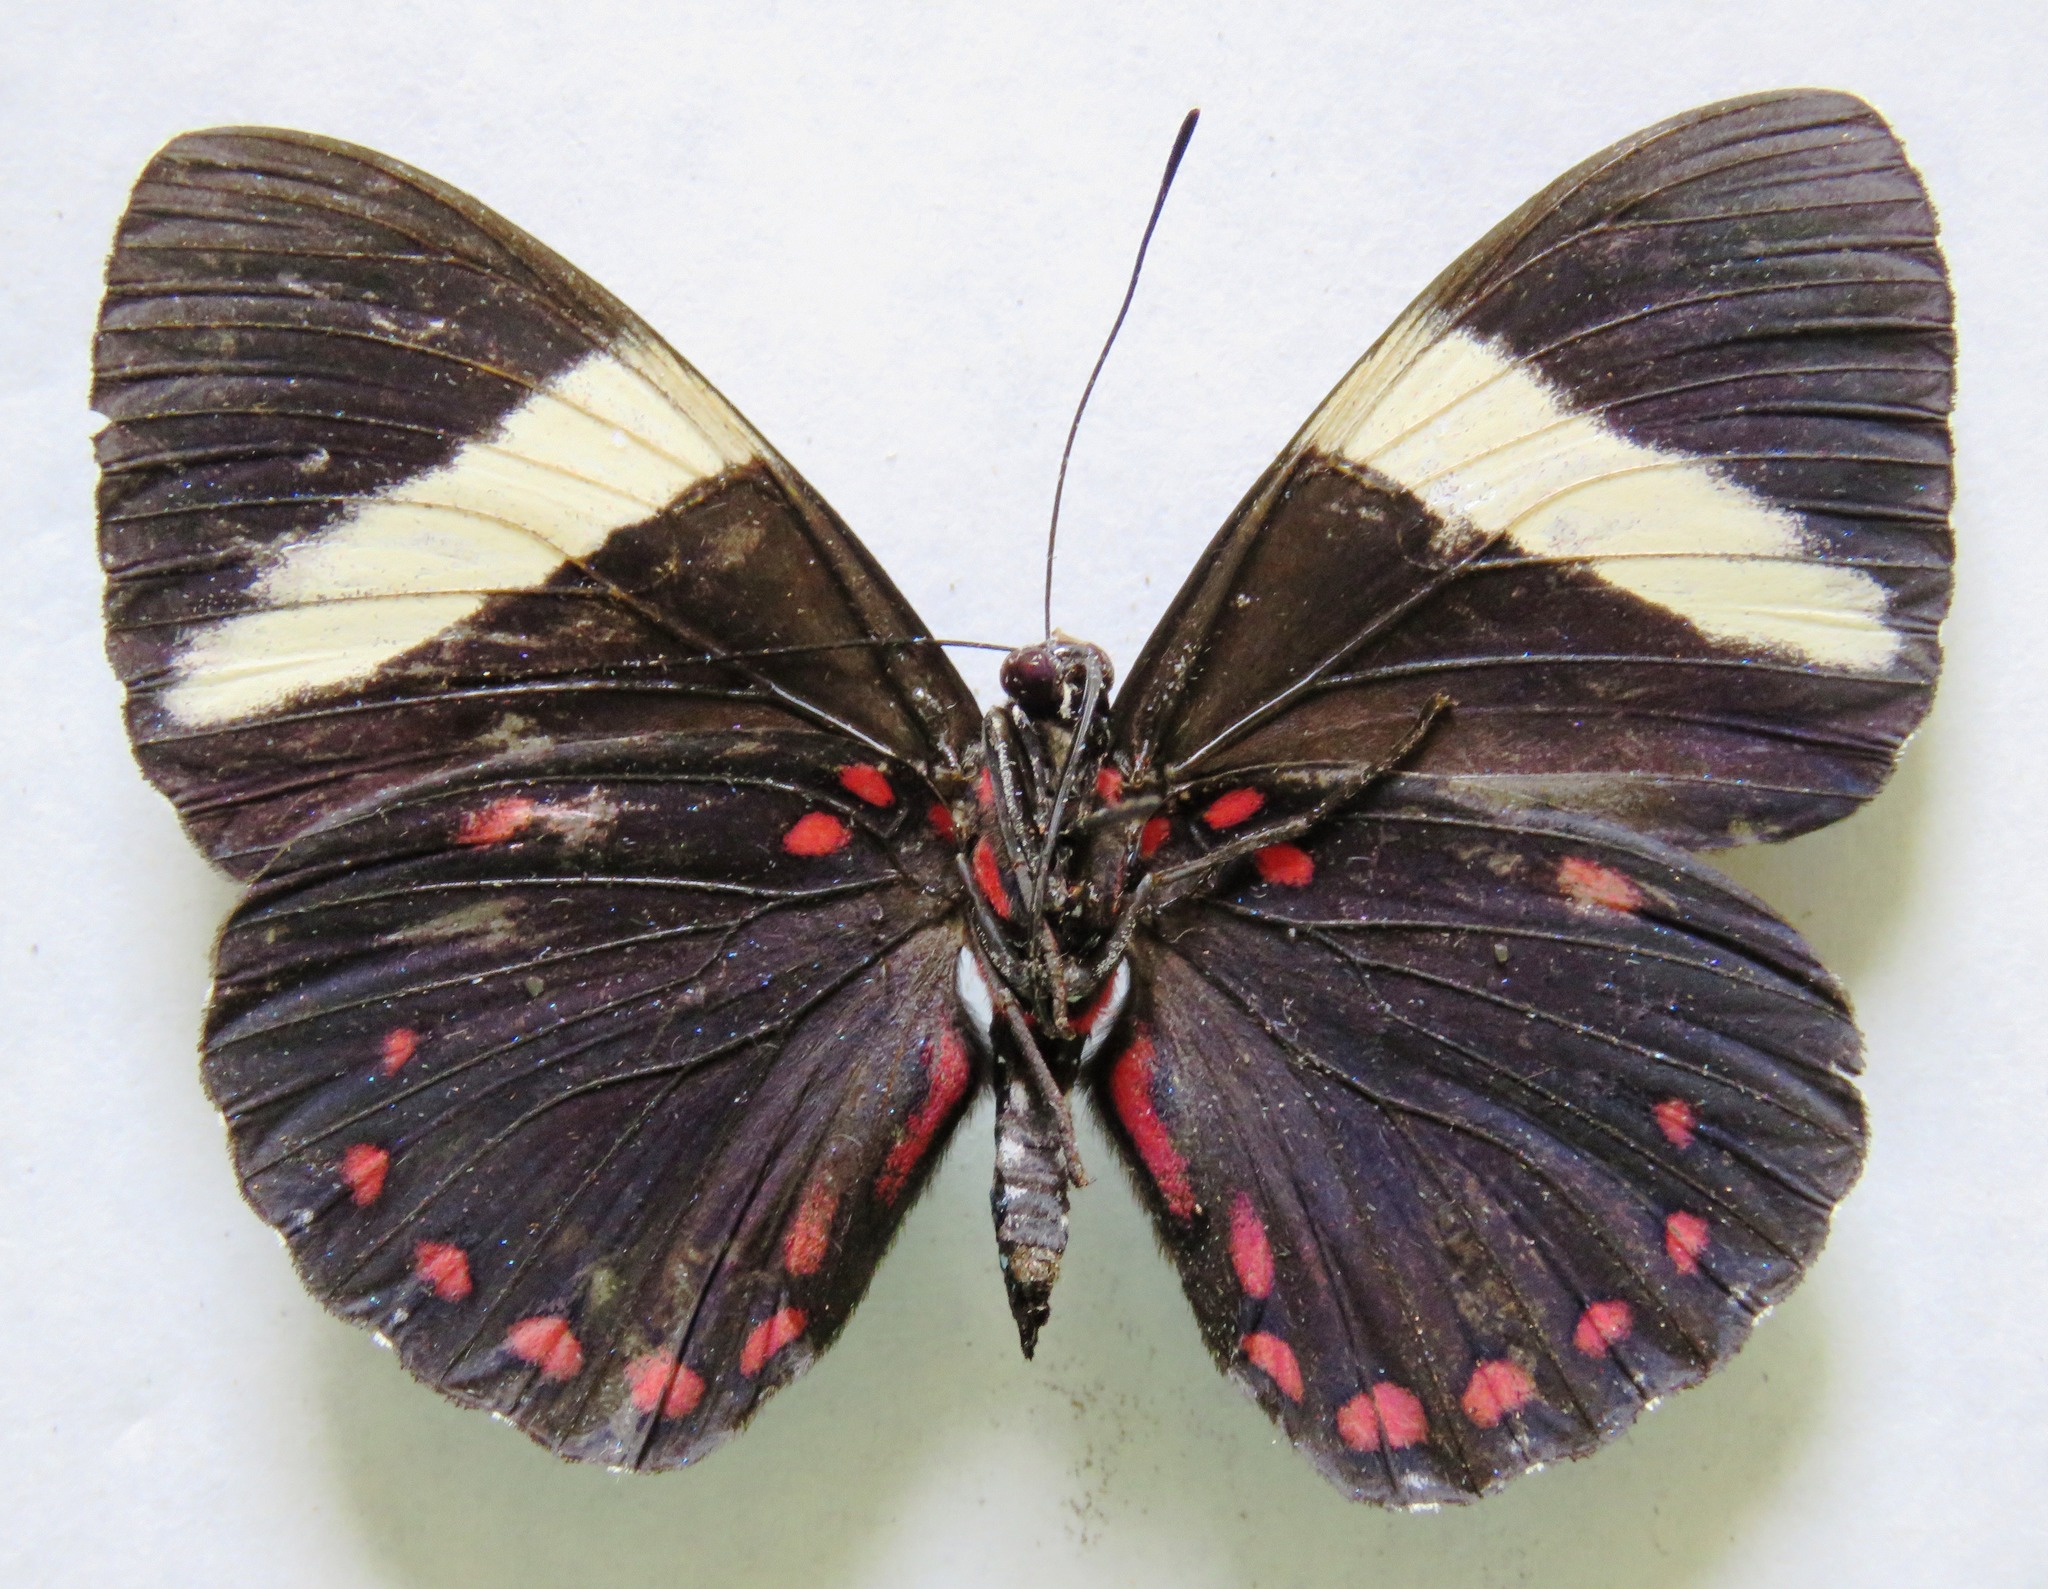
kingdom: Animalia
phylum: Arthropoda
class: Insecta
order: Lepidoptera
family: Nymphalidae
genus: Hamadryas
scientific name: Hamadryas arethusa
